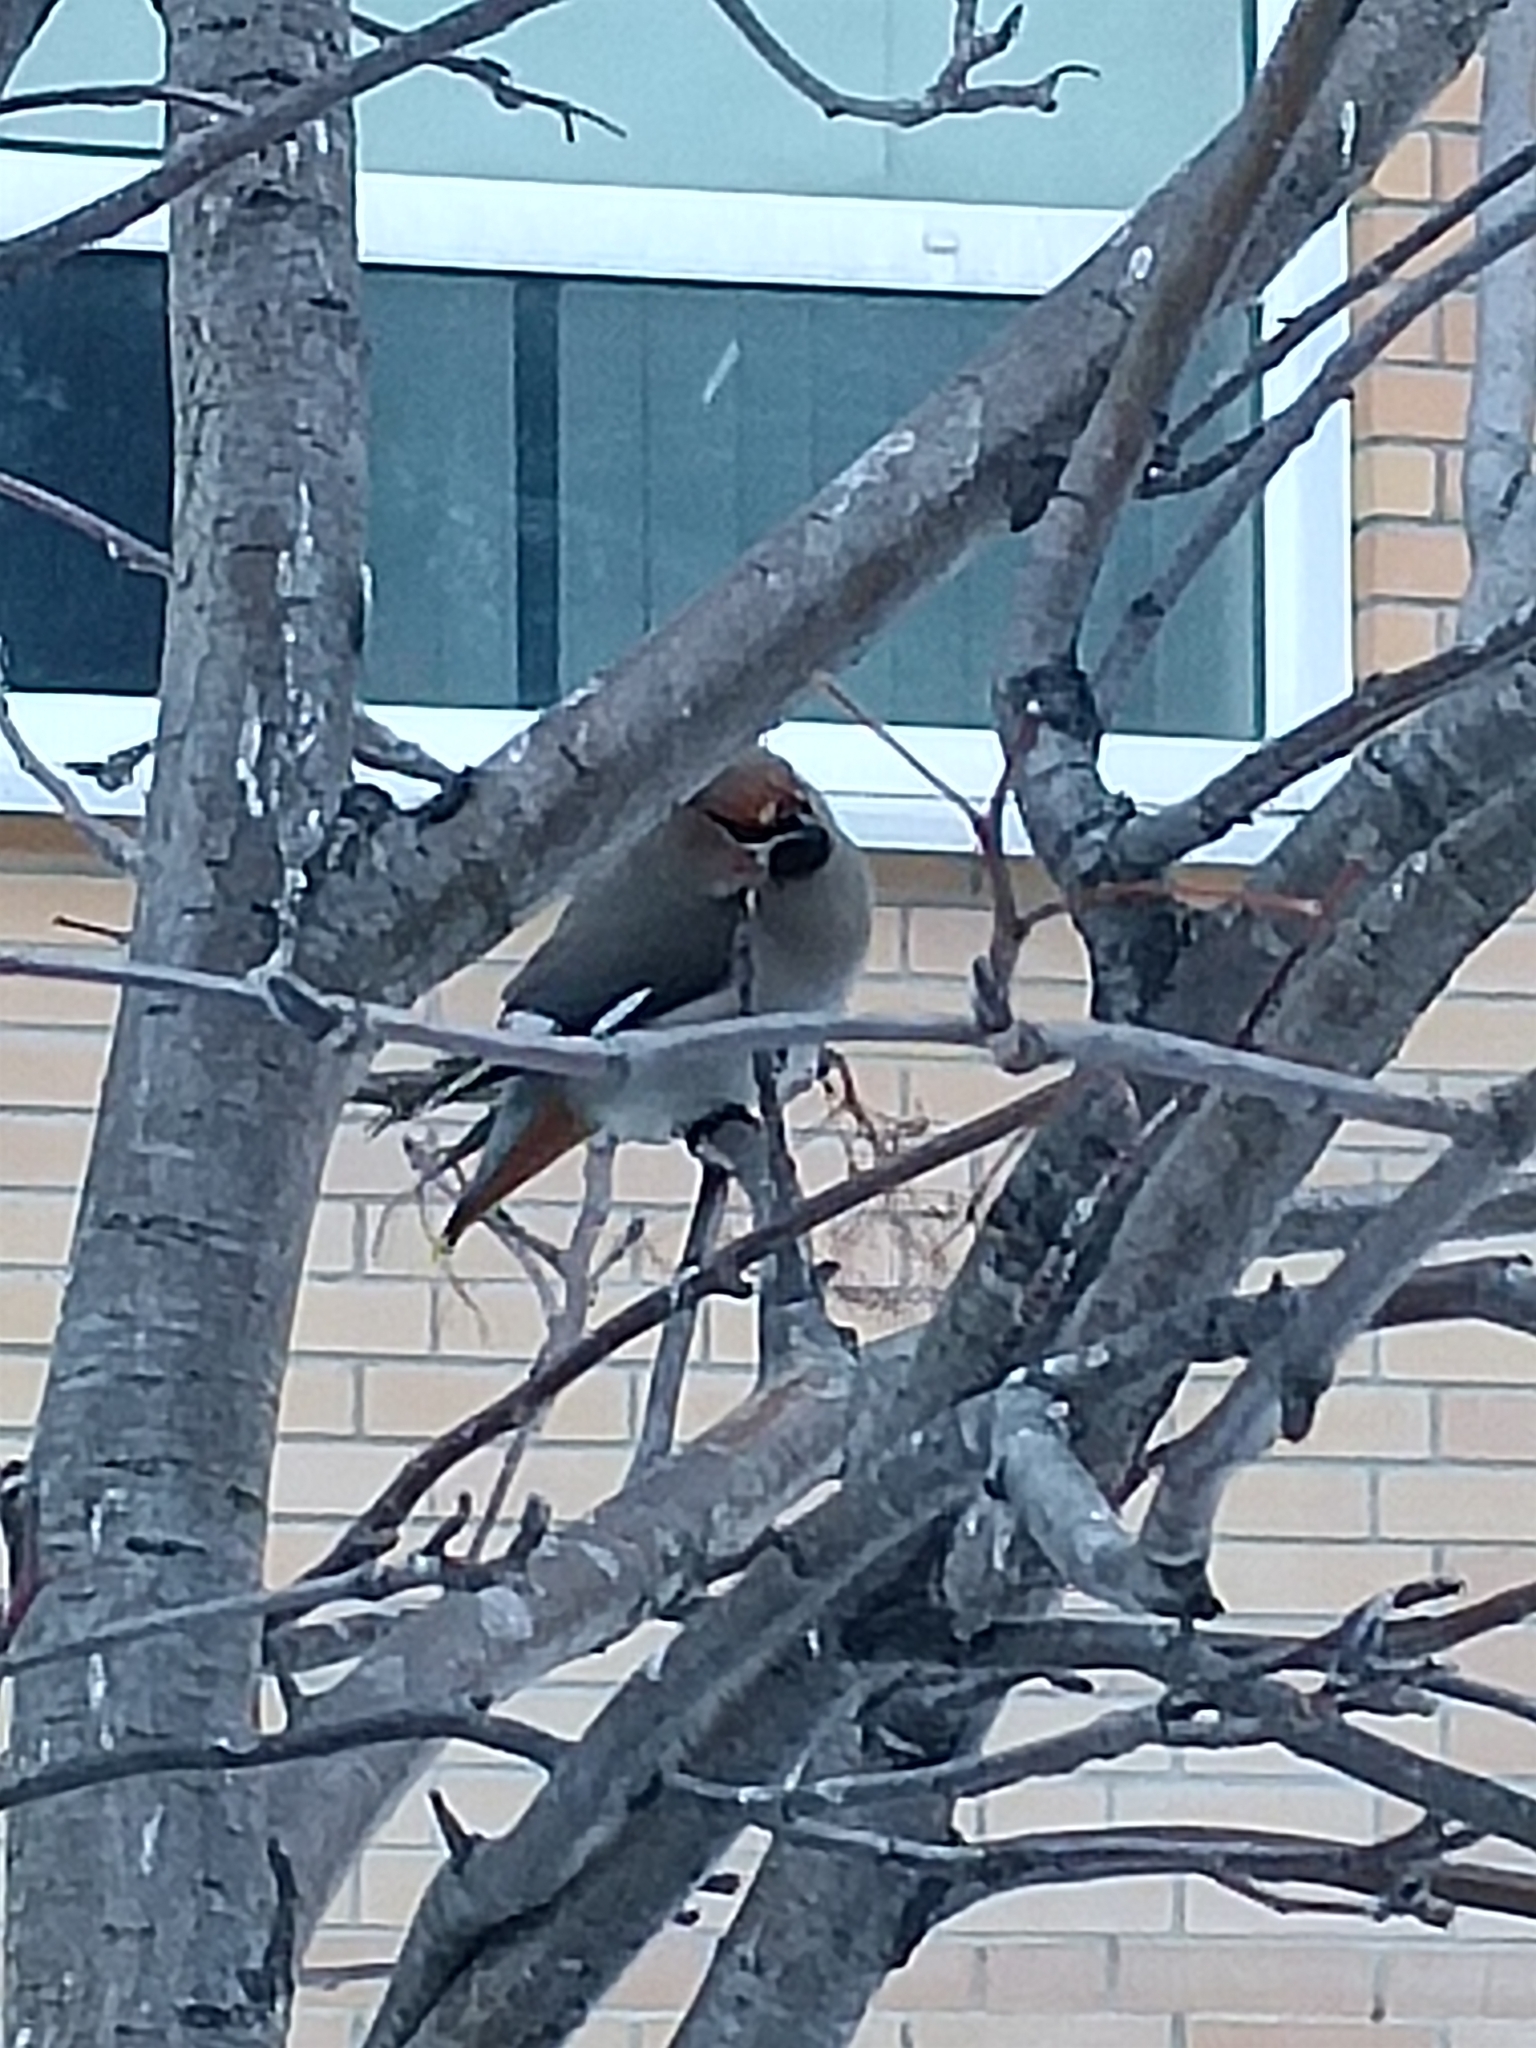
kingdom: Animalia
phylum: Chordata
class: Aves
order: Passeriformes
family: Bombycillidae
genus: Bombycilla
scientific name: Bombycilla garrulus
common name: Bohemian waxwing
